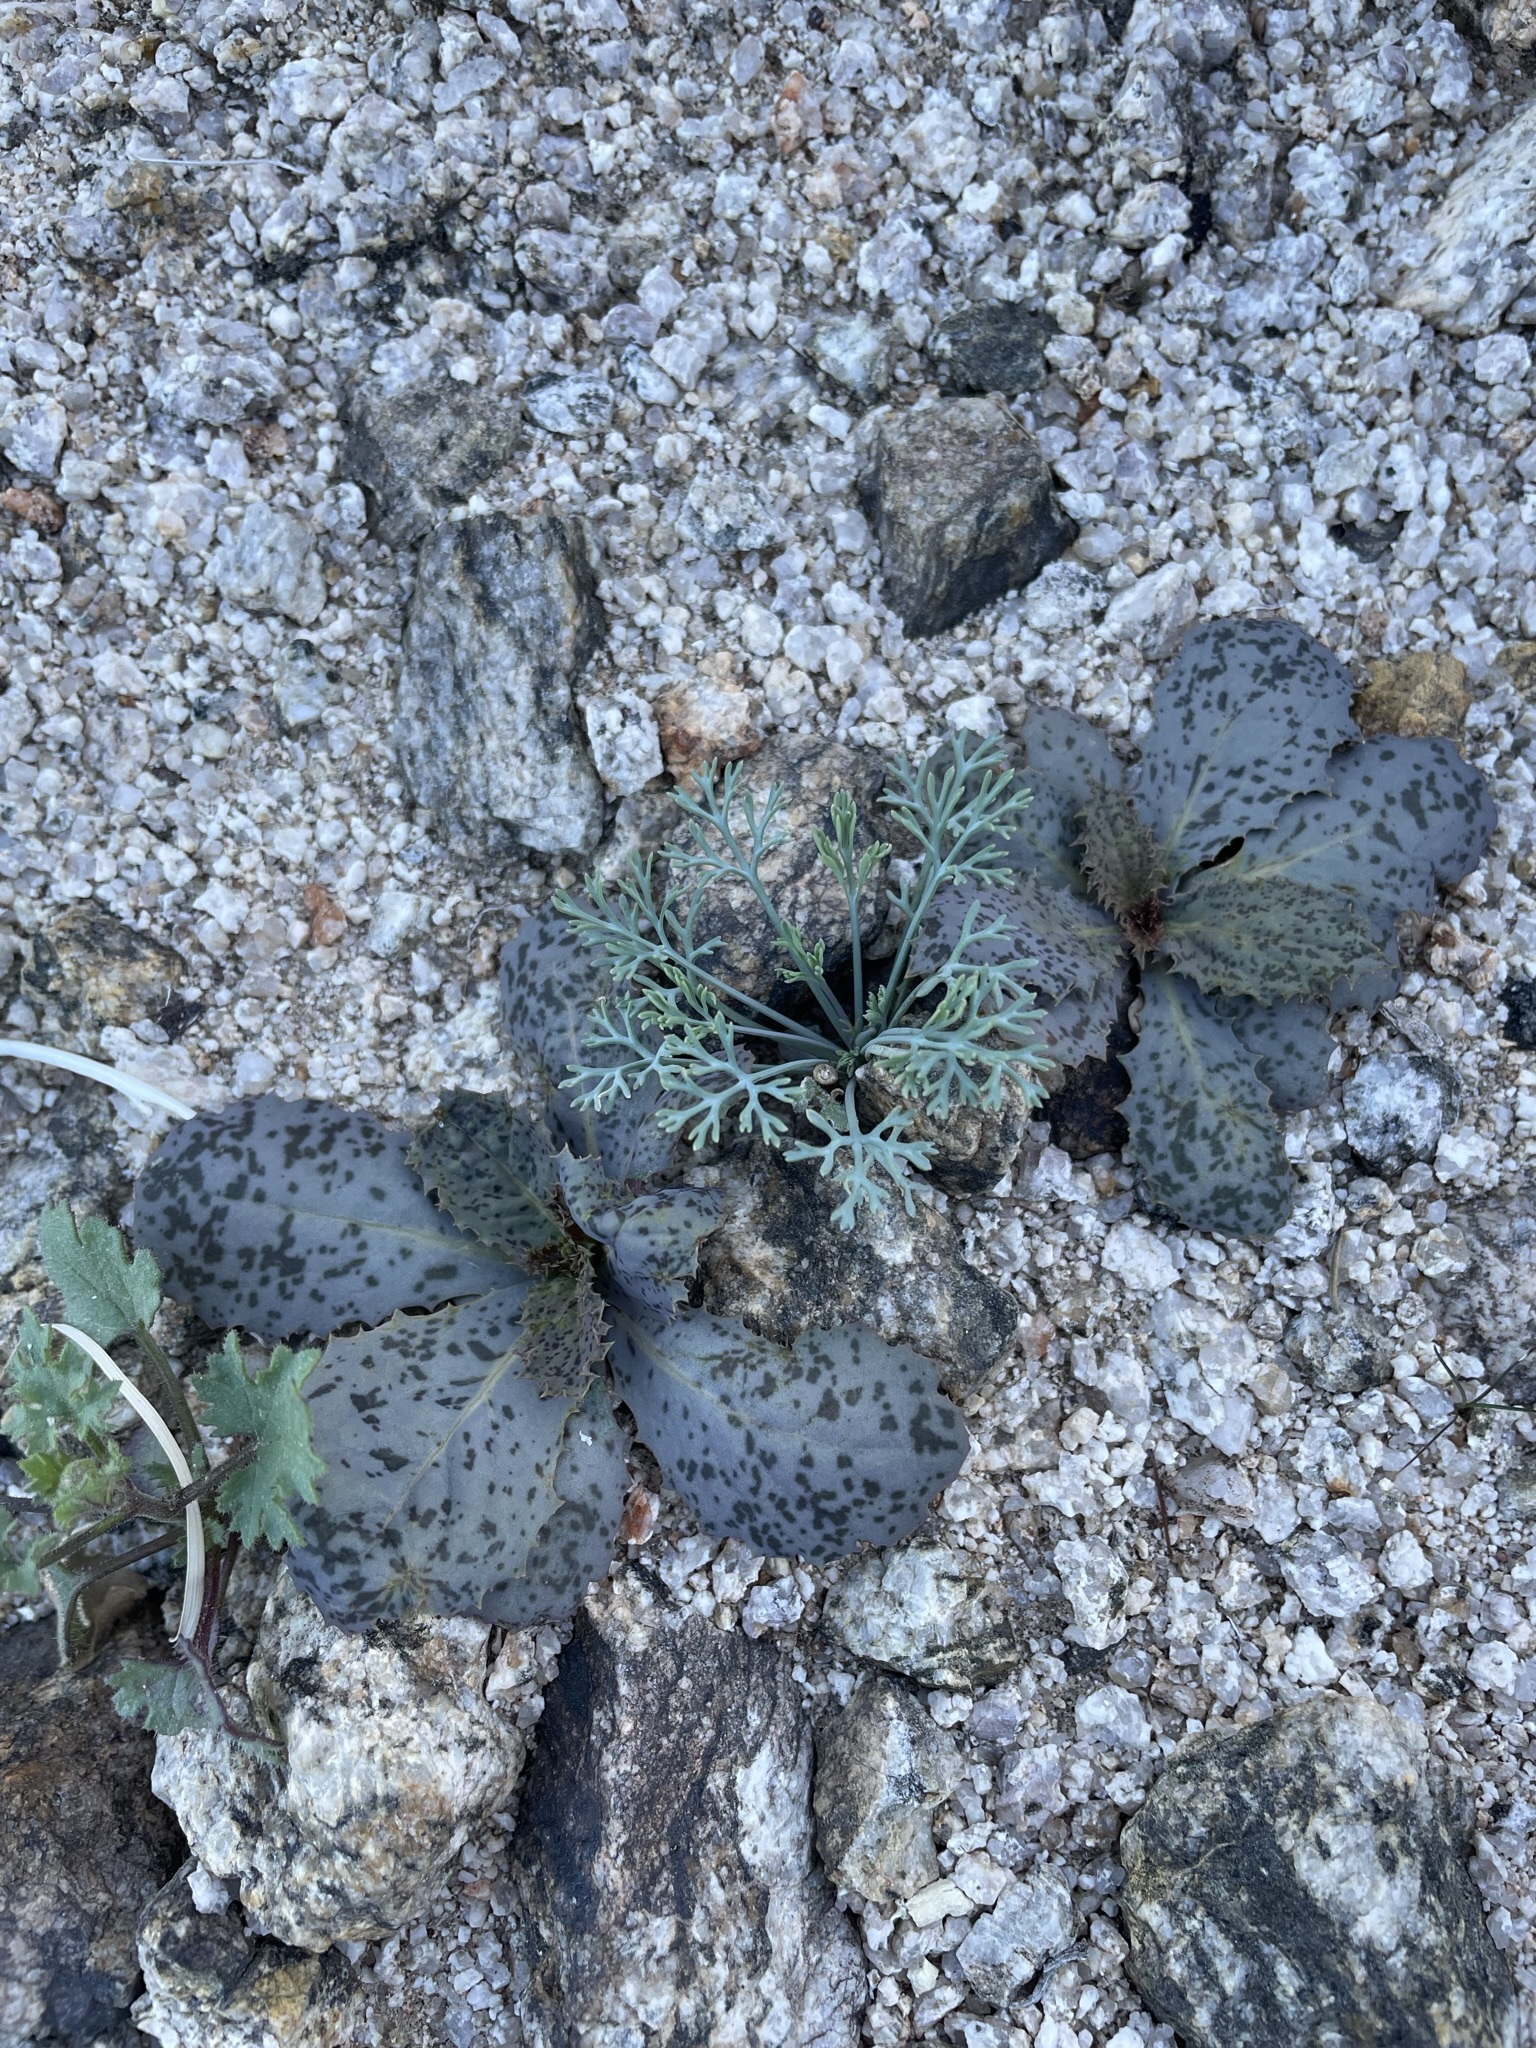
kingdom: Plantae
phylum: Tracheophyta
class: Magnoliopsida
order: Asterales
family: Asteraceae
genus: Atrichoseris
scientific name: Atrichoseris platyphylla
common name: Tobaccoweed
